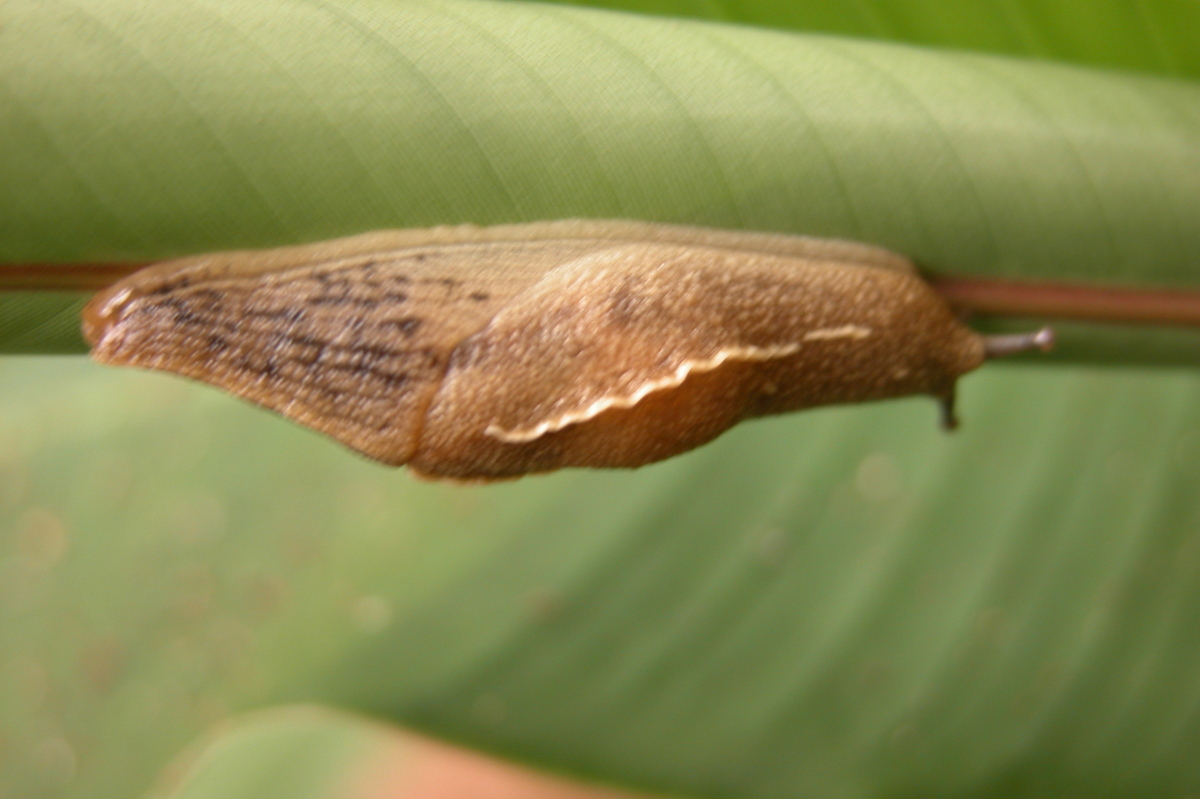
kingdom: Animalia
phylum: Mollusca
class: Gastropoda
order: Stylommatophora
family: Ariophantidae
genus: Mariaella
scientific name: Mariaella dussumieri
